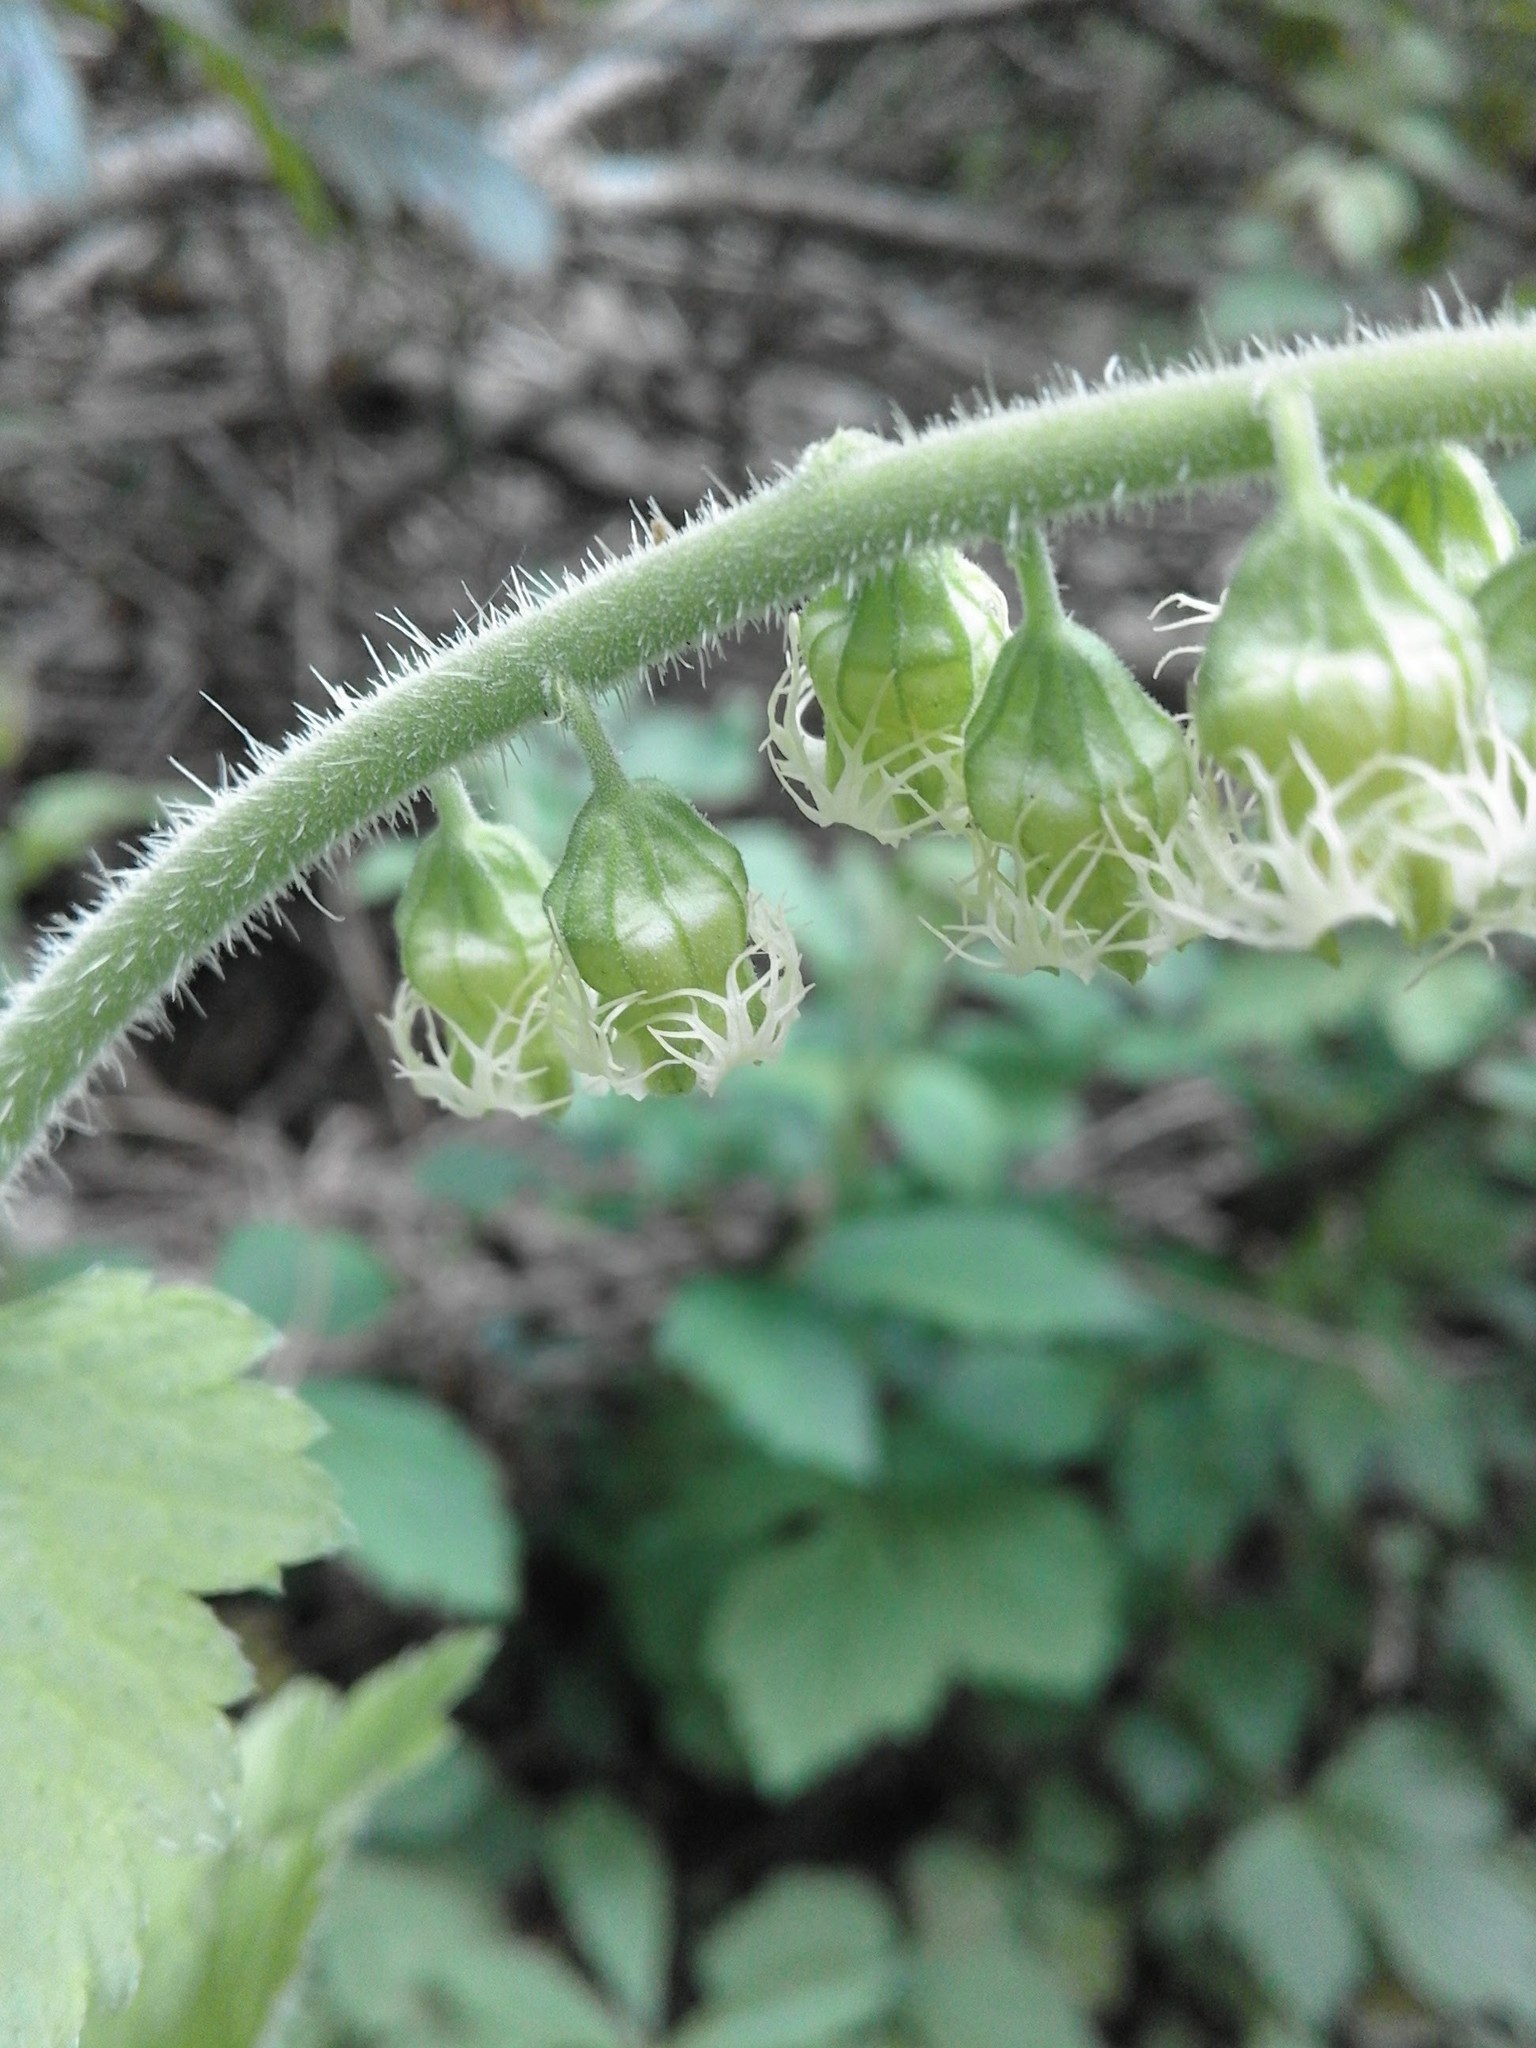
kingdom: Plantae
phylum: Tracheophyta
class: Magnoliopsida
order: Saxifragales
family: Saxifragaceae
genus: Tellima
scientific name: Tellima grandiflora
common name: Fringecups
